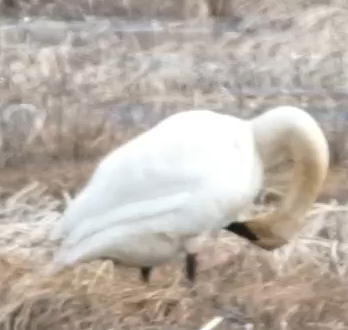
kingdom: Animalia
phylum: Chordata
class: Aves
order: Anseriformes
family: Anatidae
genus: Cygnus
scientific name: Cygnus buccinator
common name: Trumpeter swan
